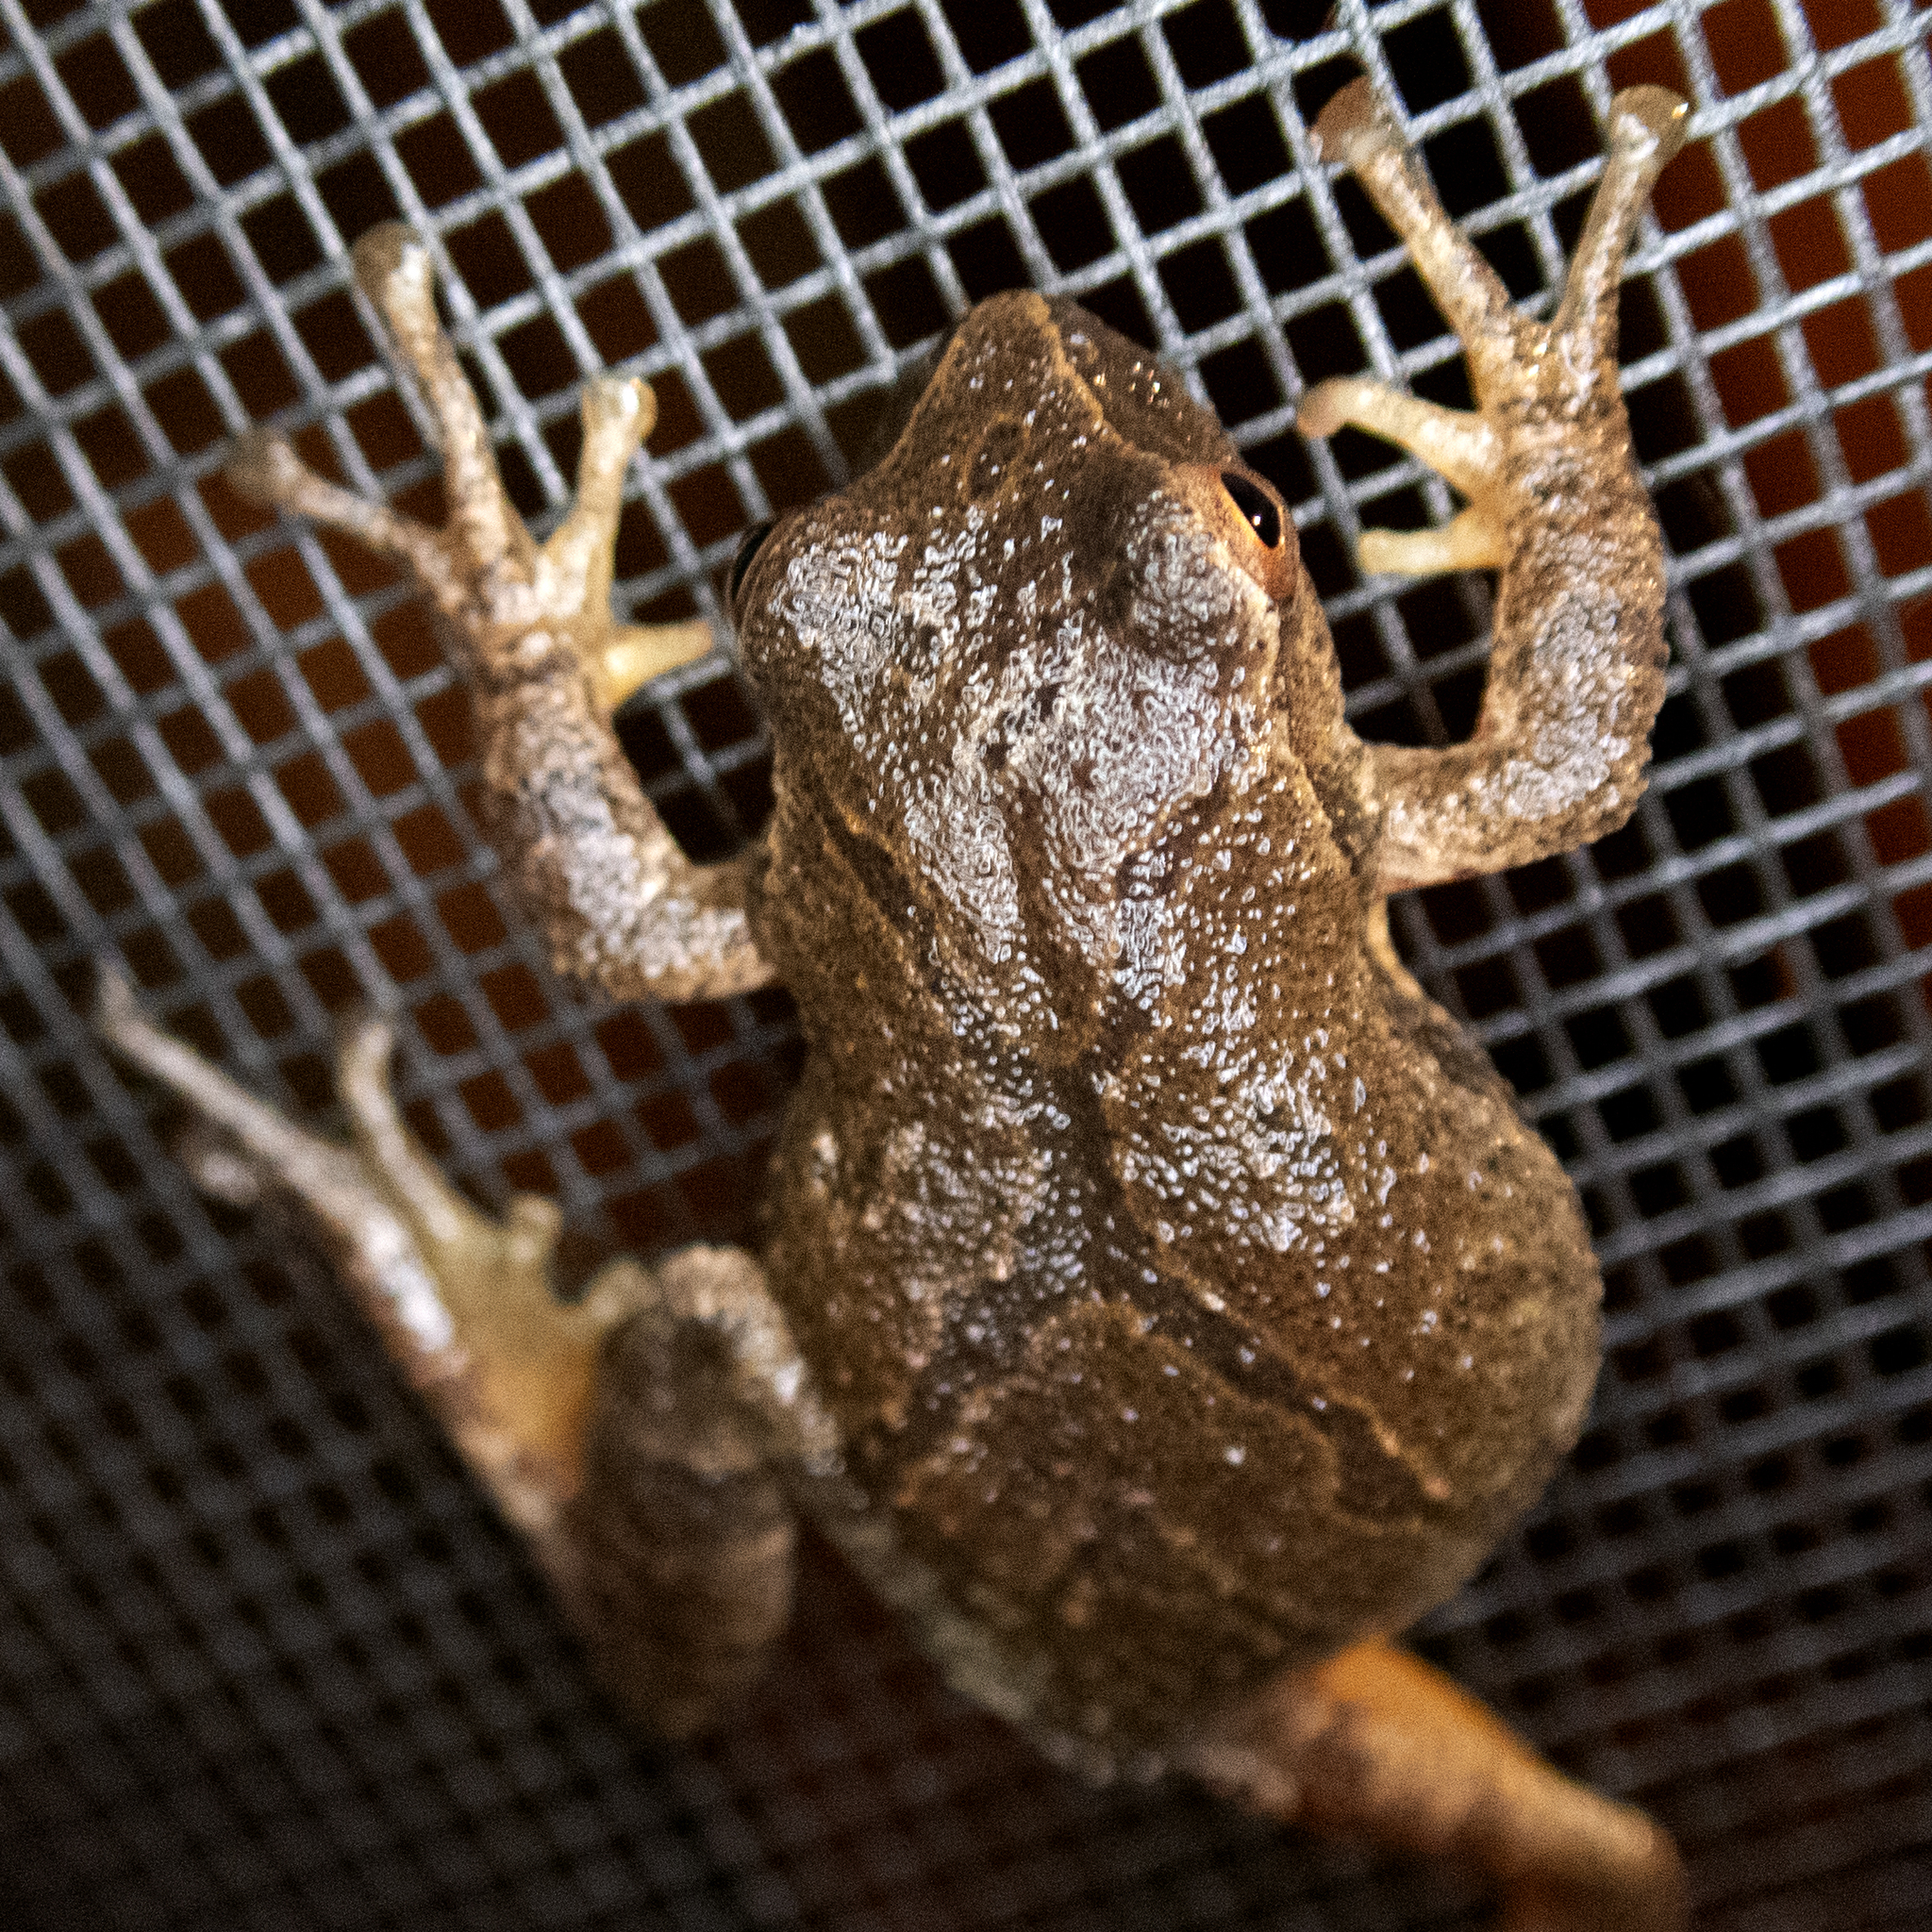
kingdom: Animalia
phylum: Chordata
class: Amphibia
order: Anura
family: Hylidae
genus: Pseudacris
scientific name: Pseudacris crucifer
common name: Spring peeper
